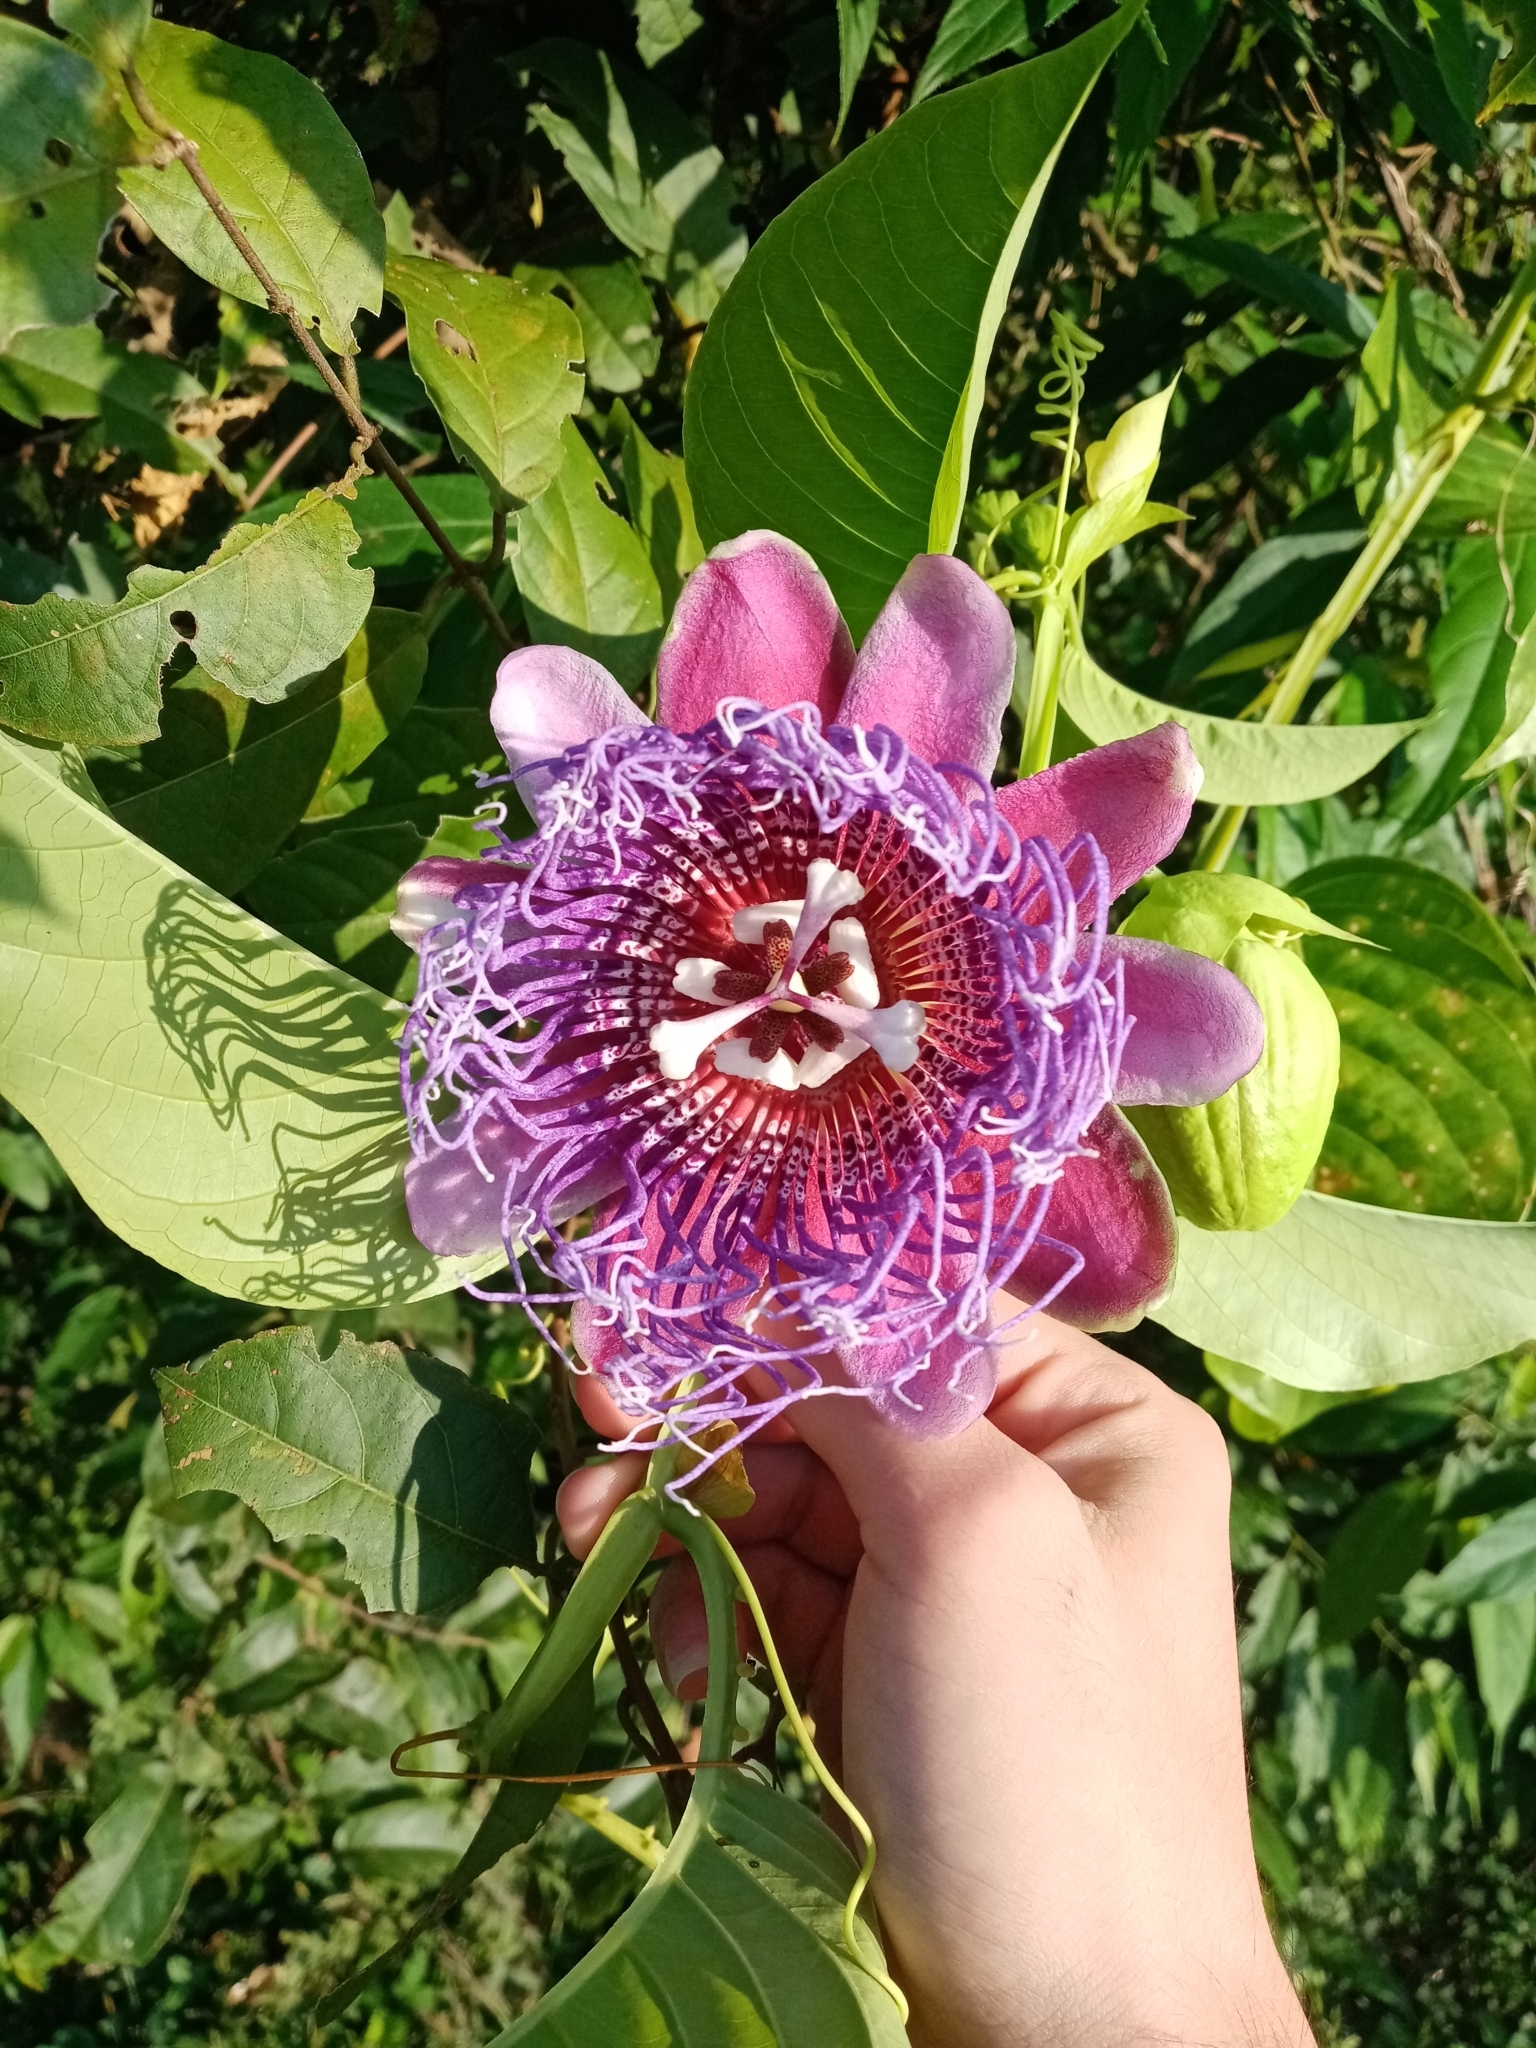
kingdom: Plantae
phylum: Tracheophyta
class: Magnoliopsida
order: Malpighiales
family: Passifloraceae
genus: Passiflora
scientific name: Passiflora quadrangularis
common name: Giant granadilla
